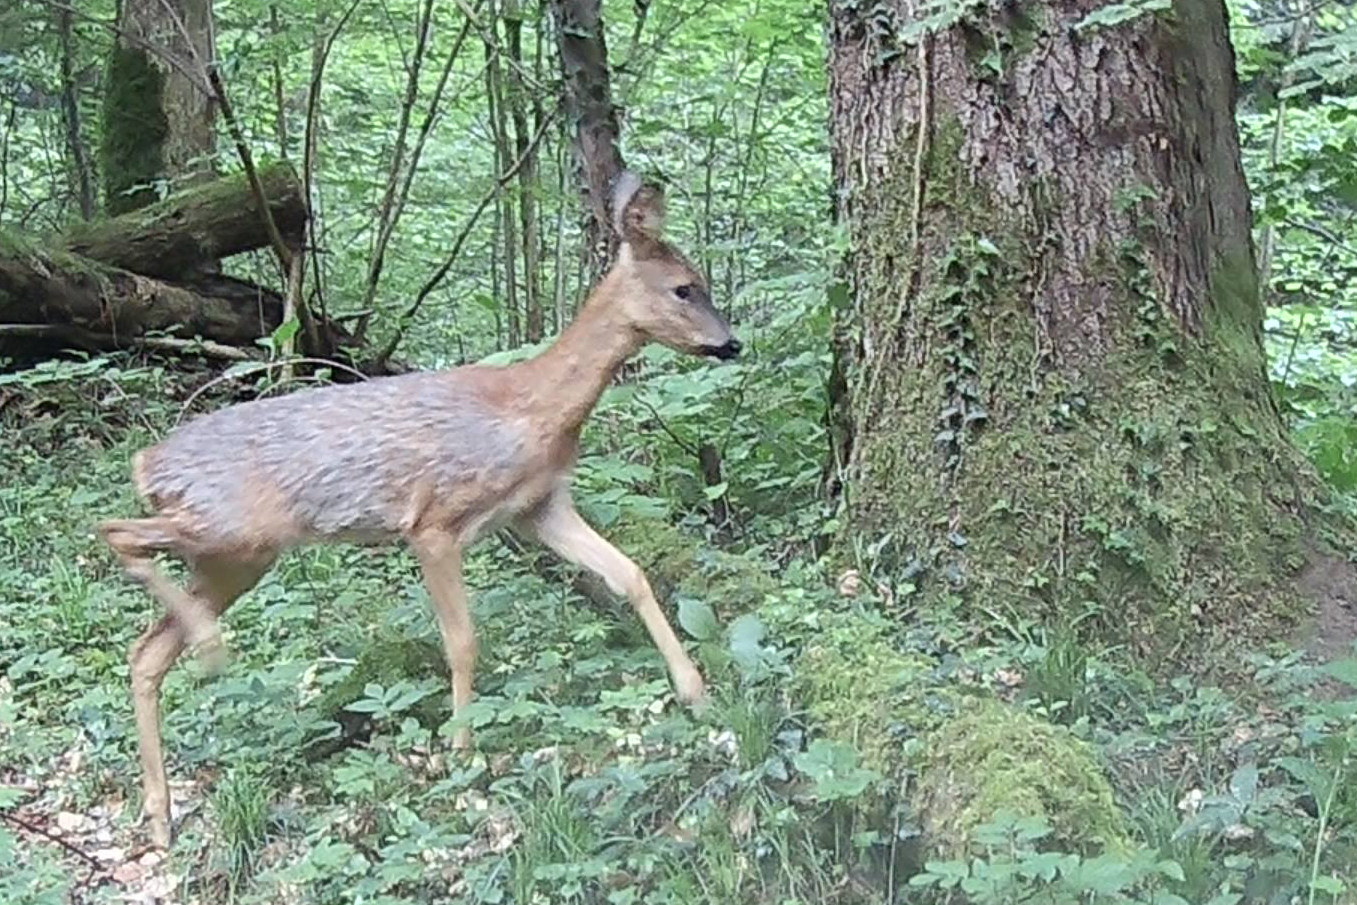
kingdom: Animalia
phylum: Chordata
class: Mammalia
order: Artiodactyla
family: Cervidae
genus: Capreolus
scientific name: Capreolus capreolus
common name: Western roe deer
